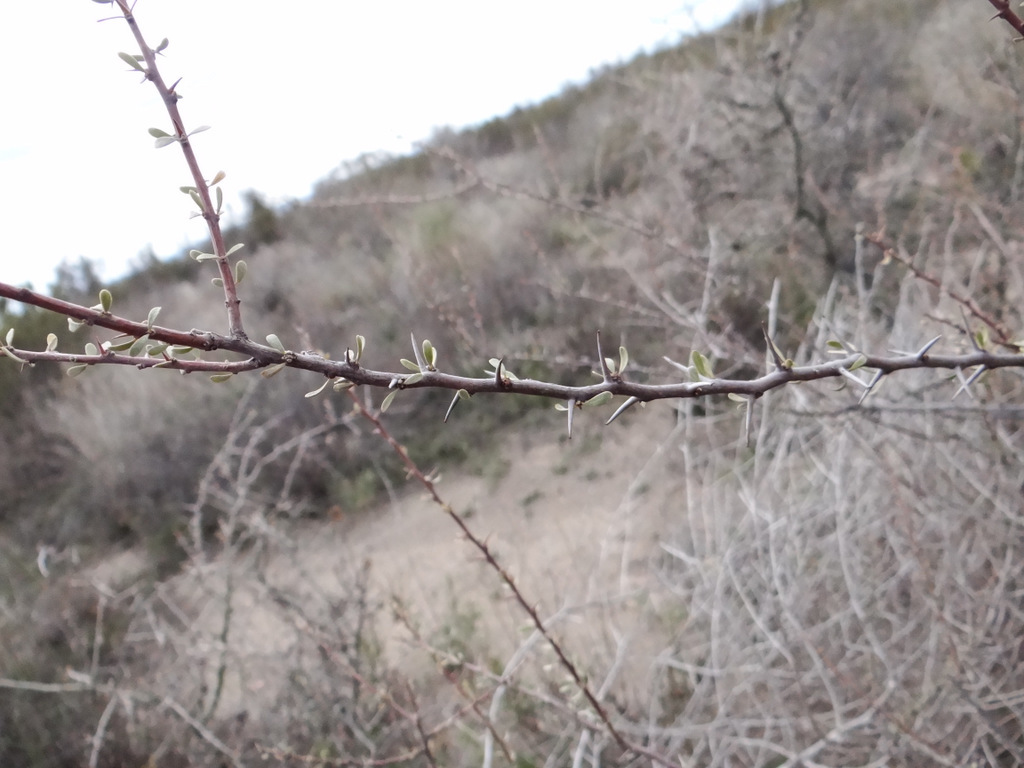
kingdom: Plantae
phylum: Tracheophyta
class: Magnoliopsida
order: Caryophyllales
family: Nyctaginaceae
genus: Bougainvillea
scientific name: Bougainvillea spinosa
